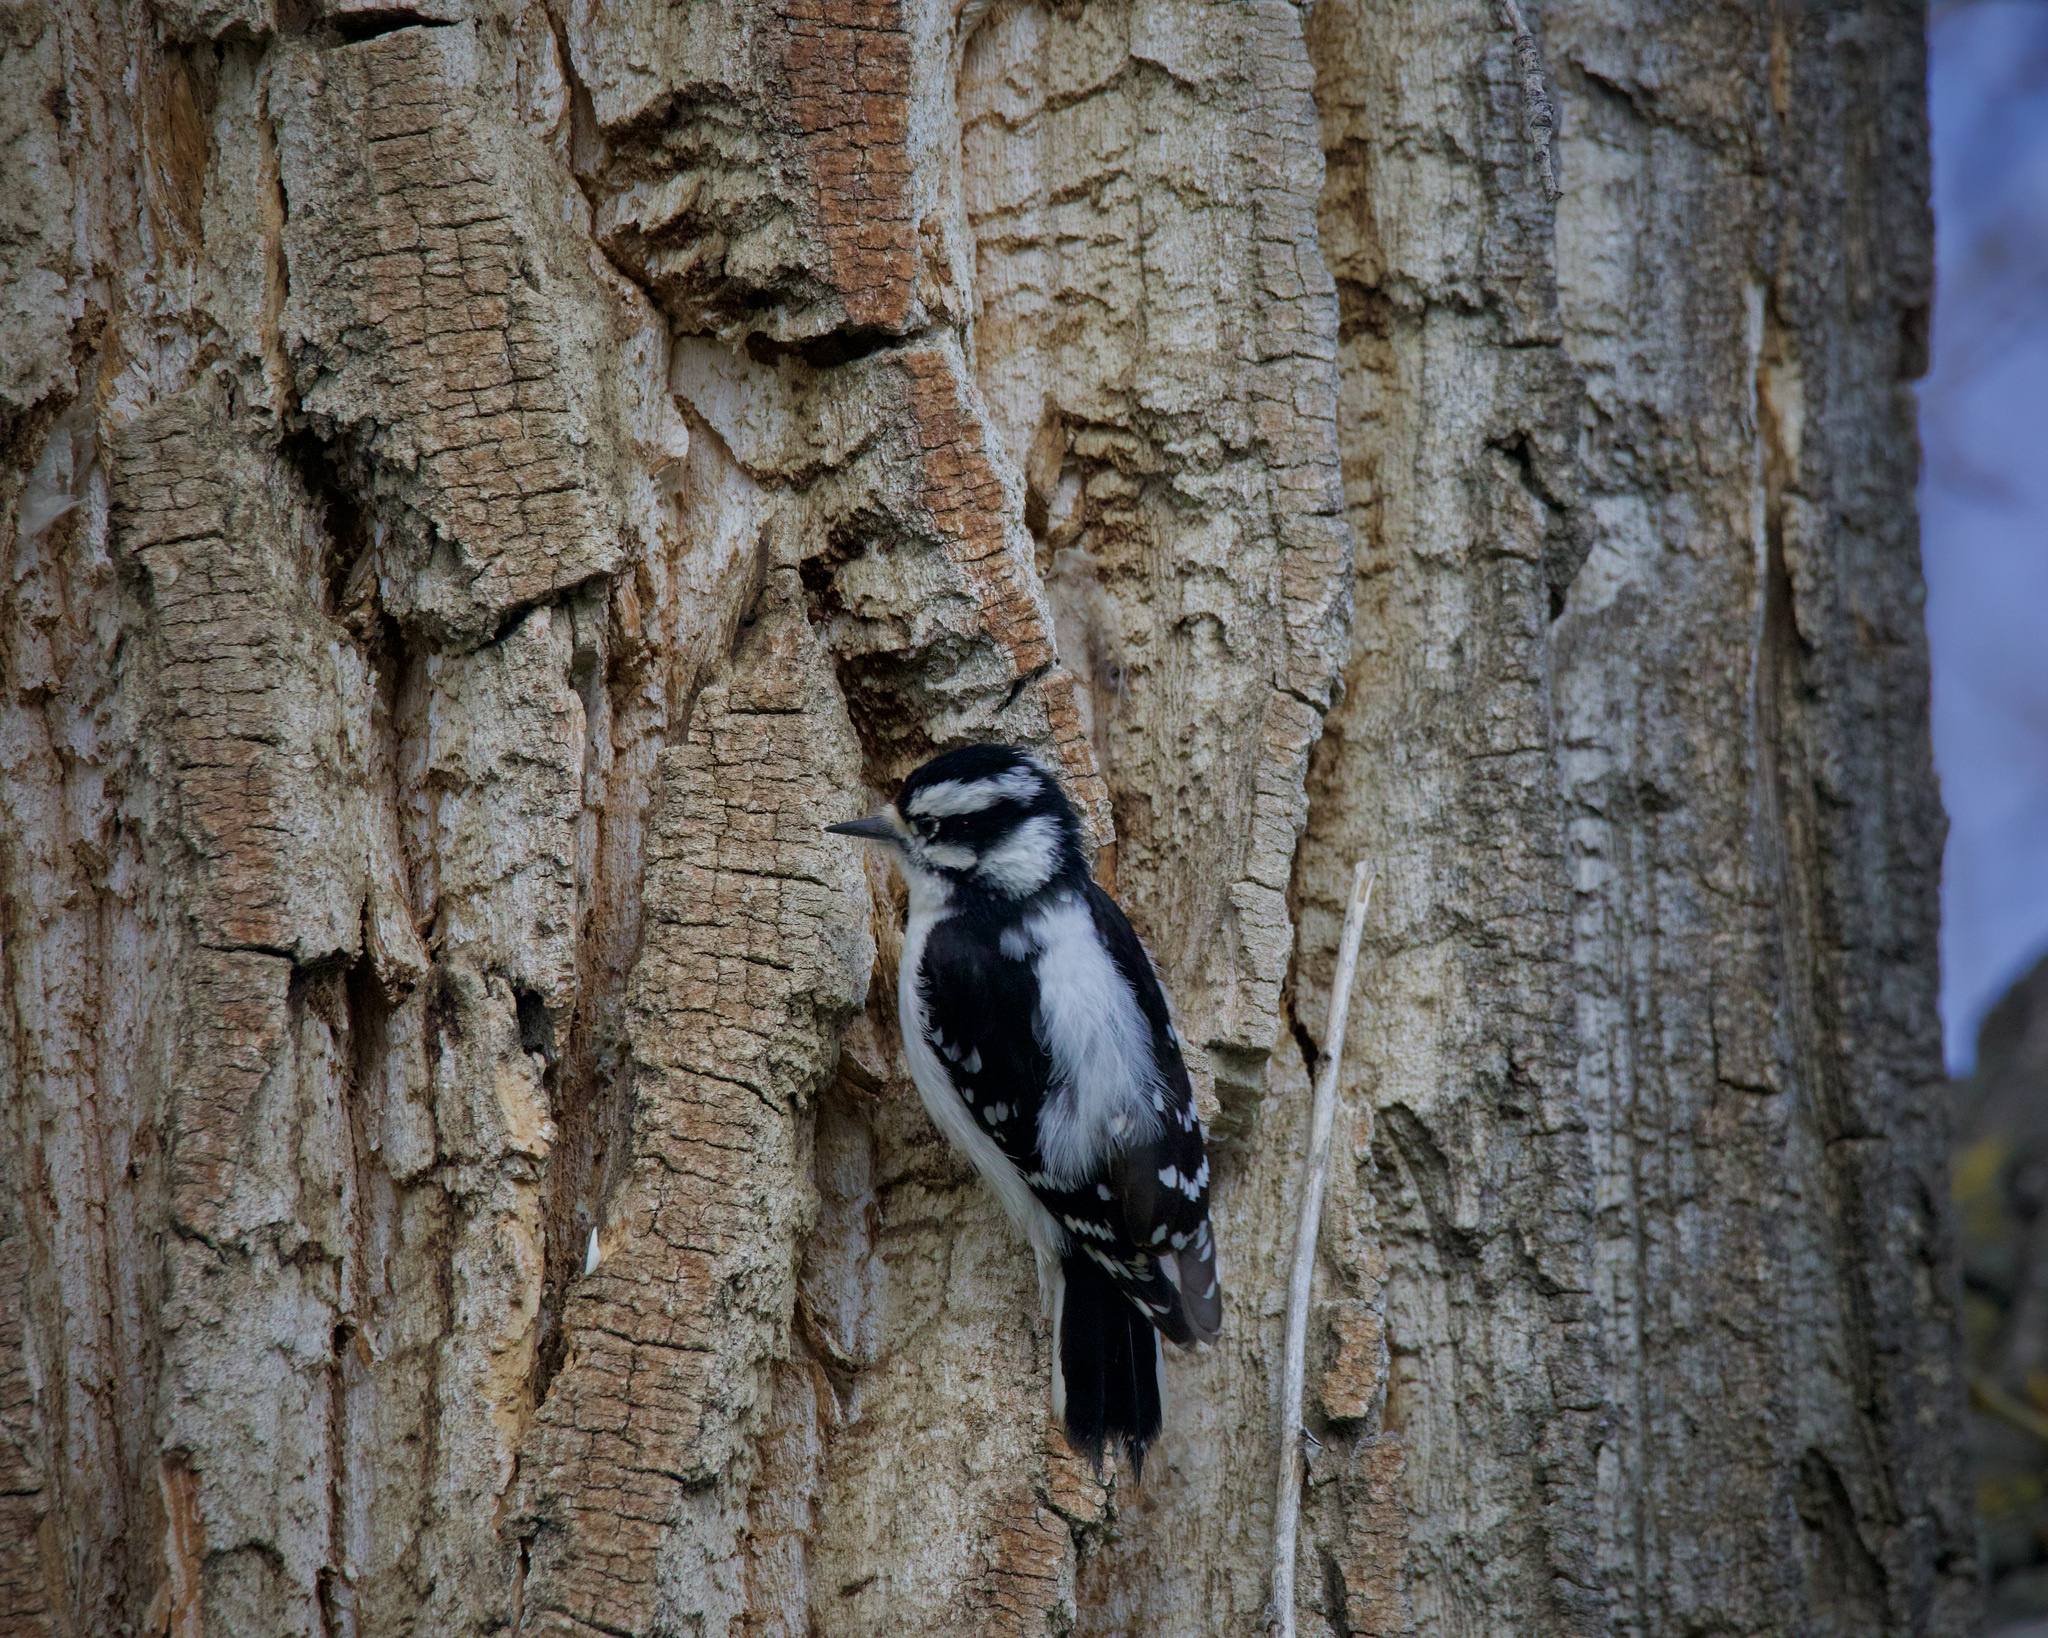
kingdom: Animalia
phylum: Chordata
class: Aves
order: Piciformes
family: Picidae
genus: Dryobates
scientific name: Dryobates pubescens
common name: Downy woodpecker
